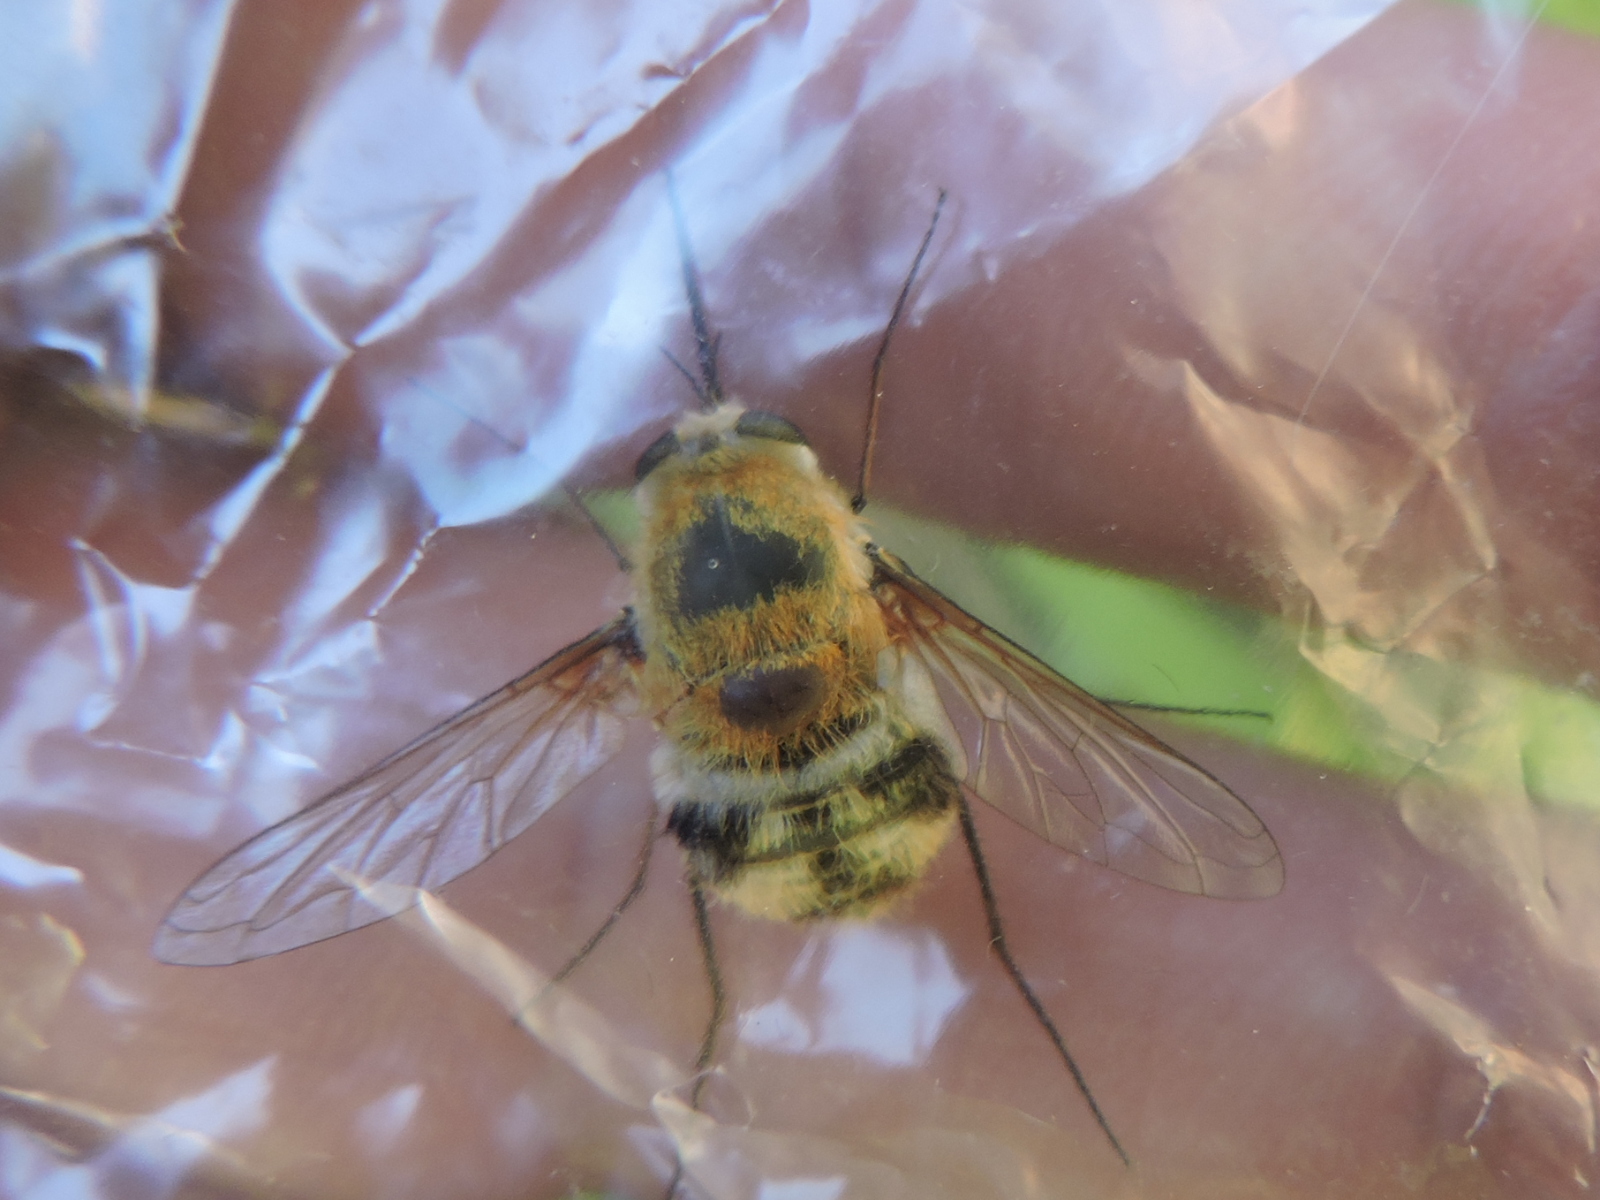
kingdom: Animalia
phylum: Arthropoda
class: Insecta
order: Diptera
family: Bombyliidae
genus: Heterostylum
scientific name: Heterostylum robustum
